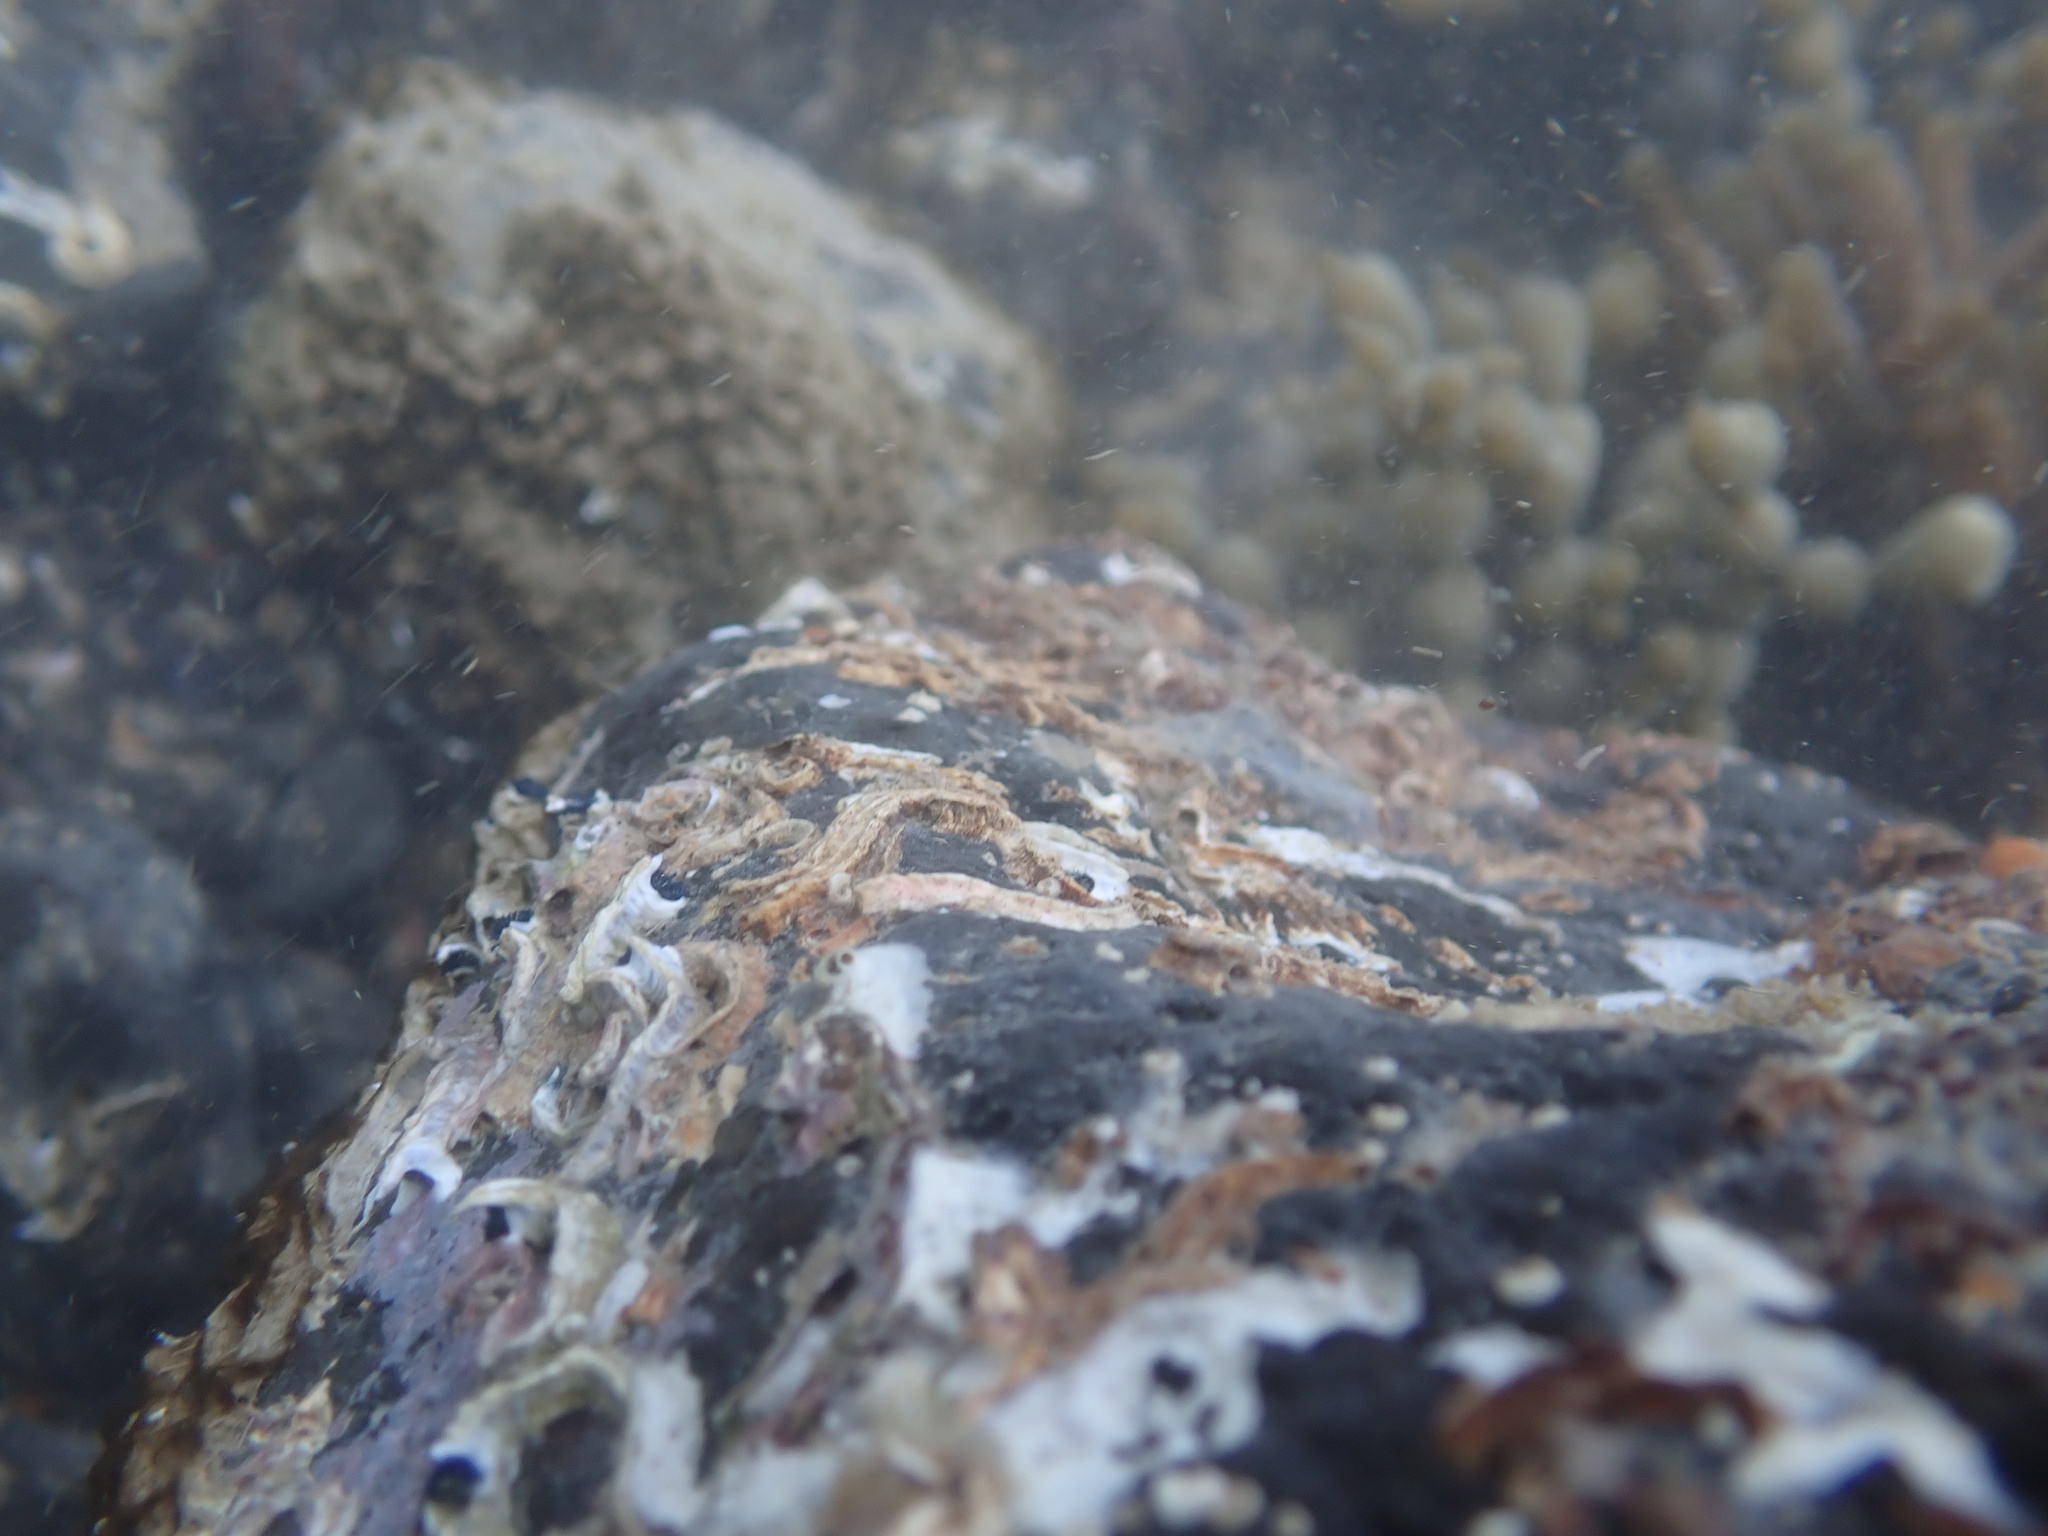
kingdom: Animalia
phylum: Annelida
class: Polychaeta
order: Sabellida
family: Serpulidae
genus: Spirobranchus
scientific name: Spirobranchus cariniferus
